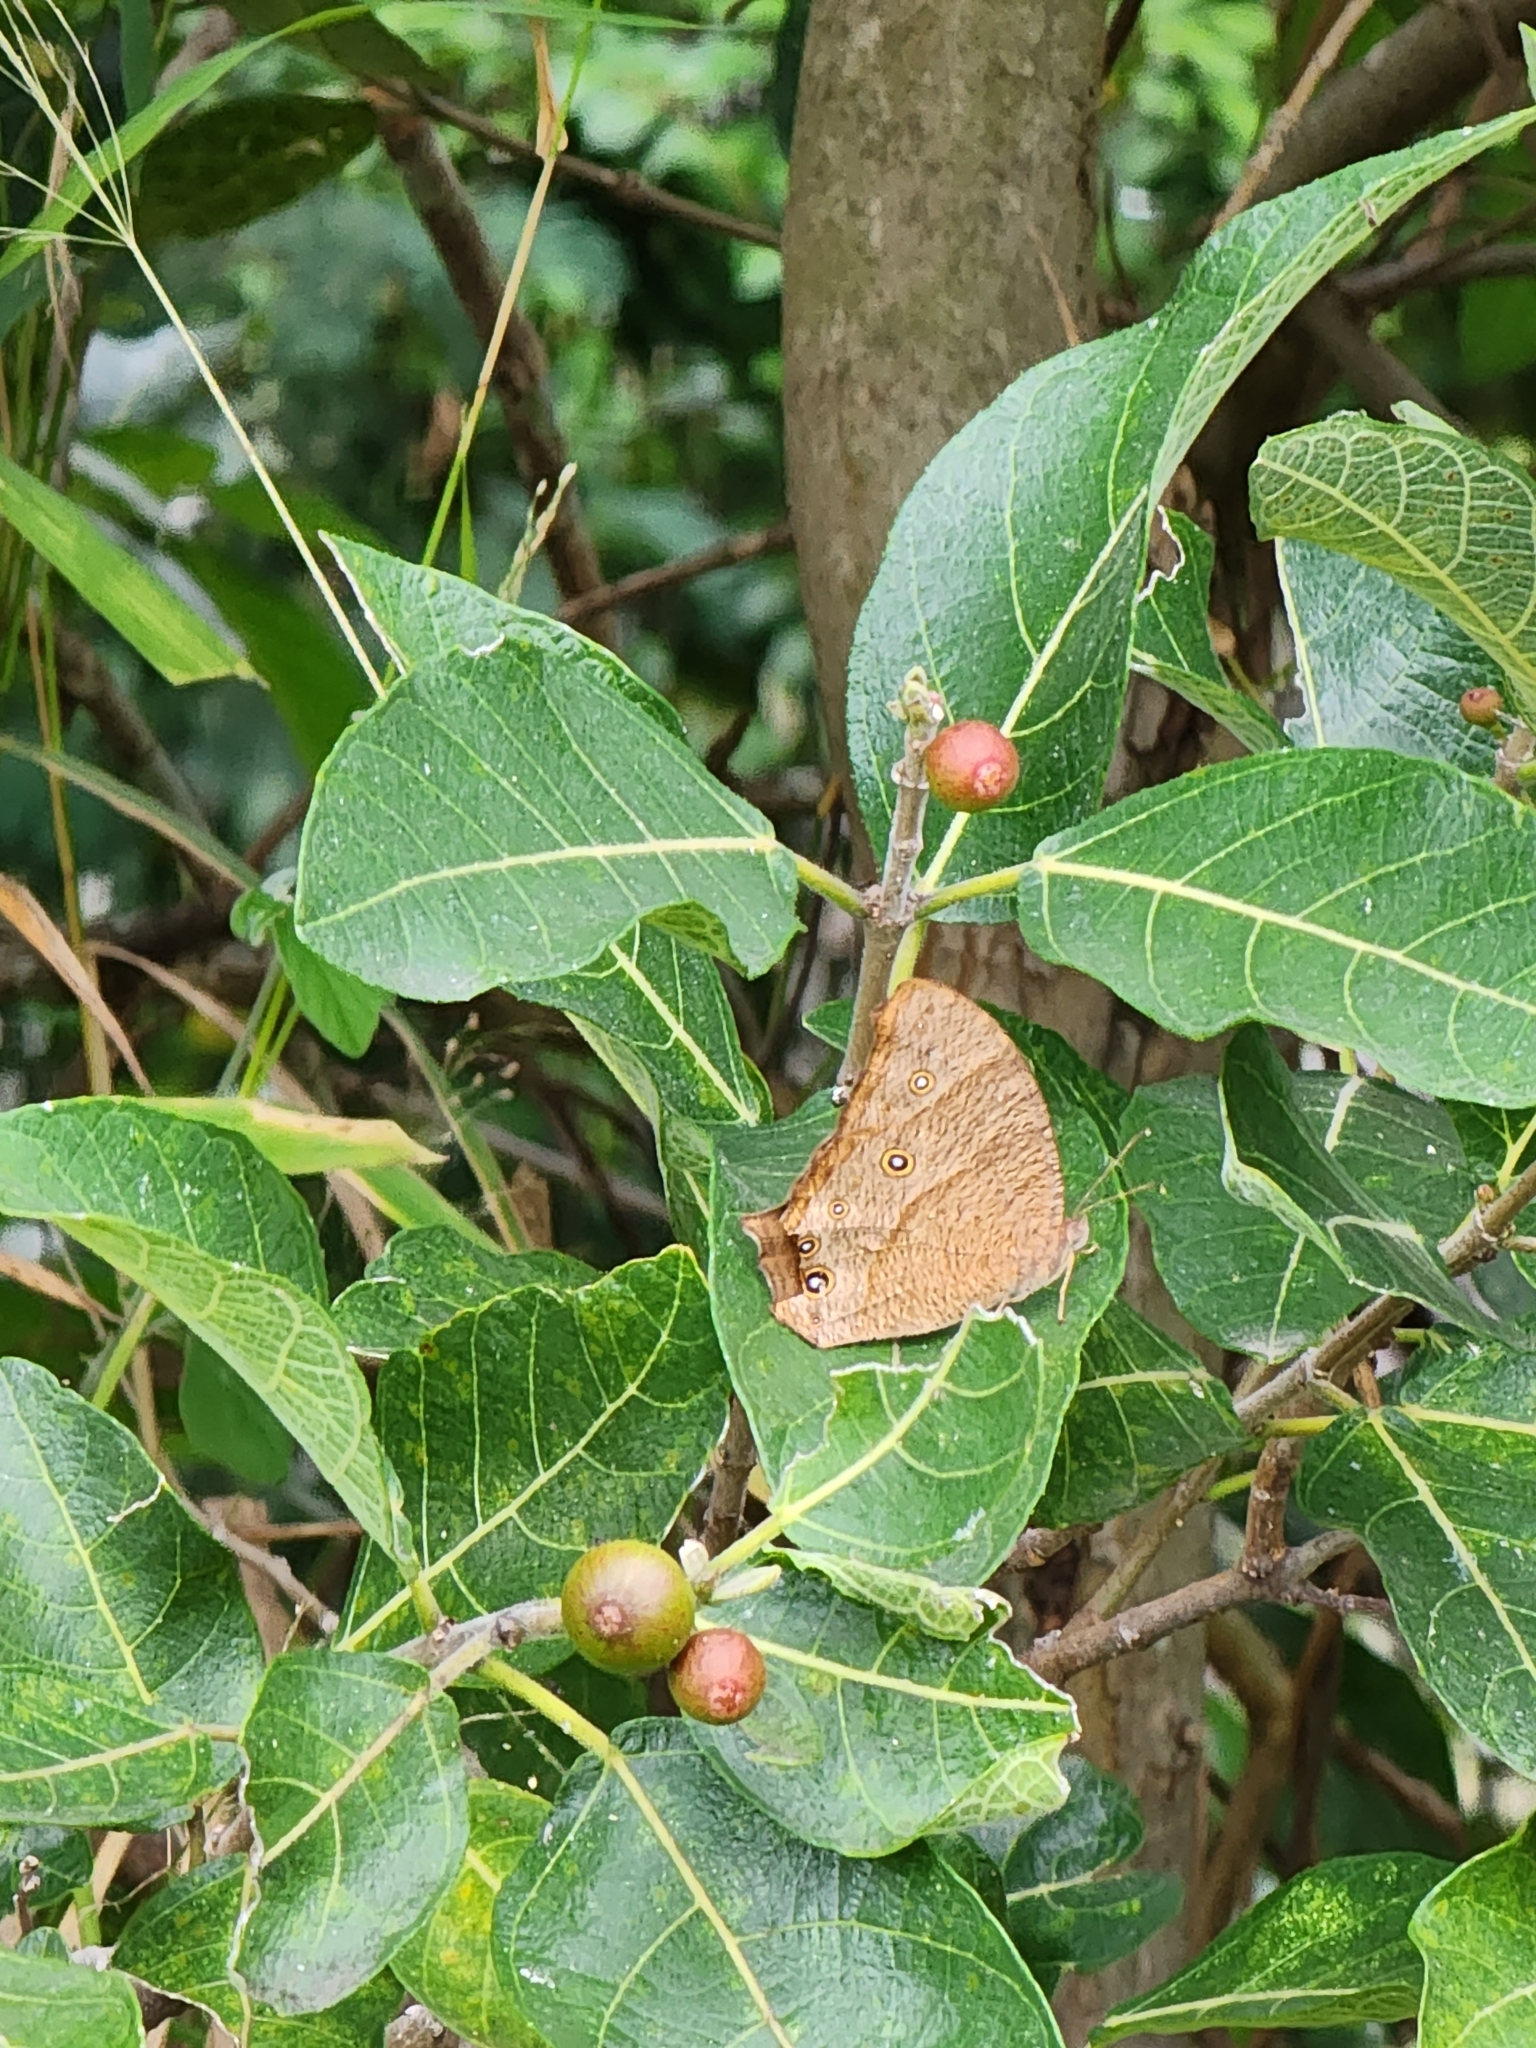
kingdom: Animalia
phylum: Arthropoda
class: Insecta
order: Lepidoptera
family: Nymphalidae
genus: Melanitis
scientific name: Melanitis leda
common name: Twilight brown
